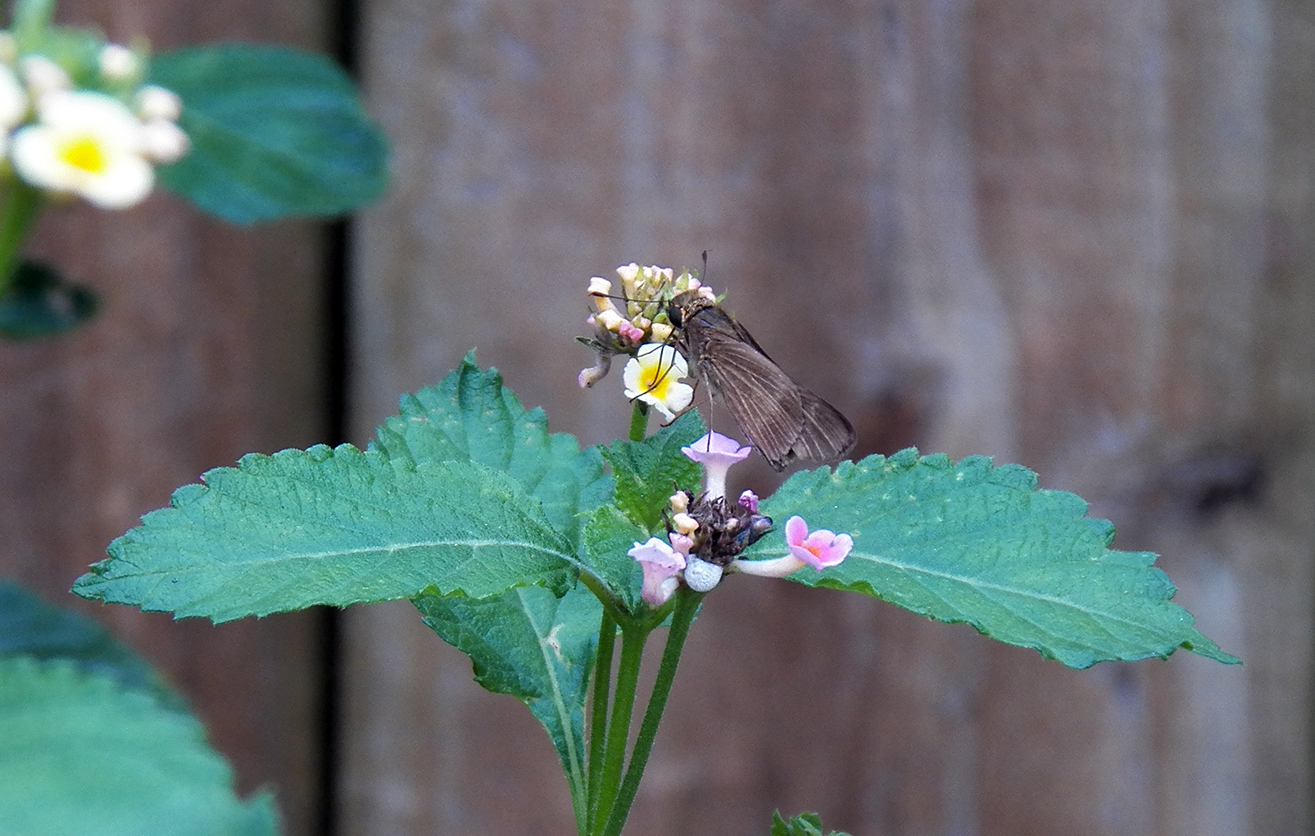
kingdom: Animalia
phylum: Arthropoda
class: Insecta
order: Lepidoptera
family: Hesperiidae
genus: Panoquina
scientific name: Panoquina ocola
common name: Ocola skipper
